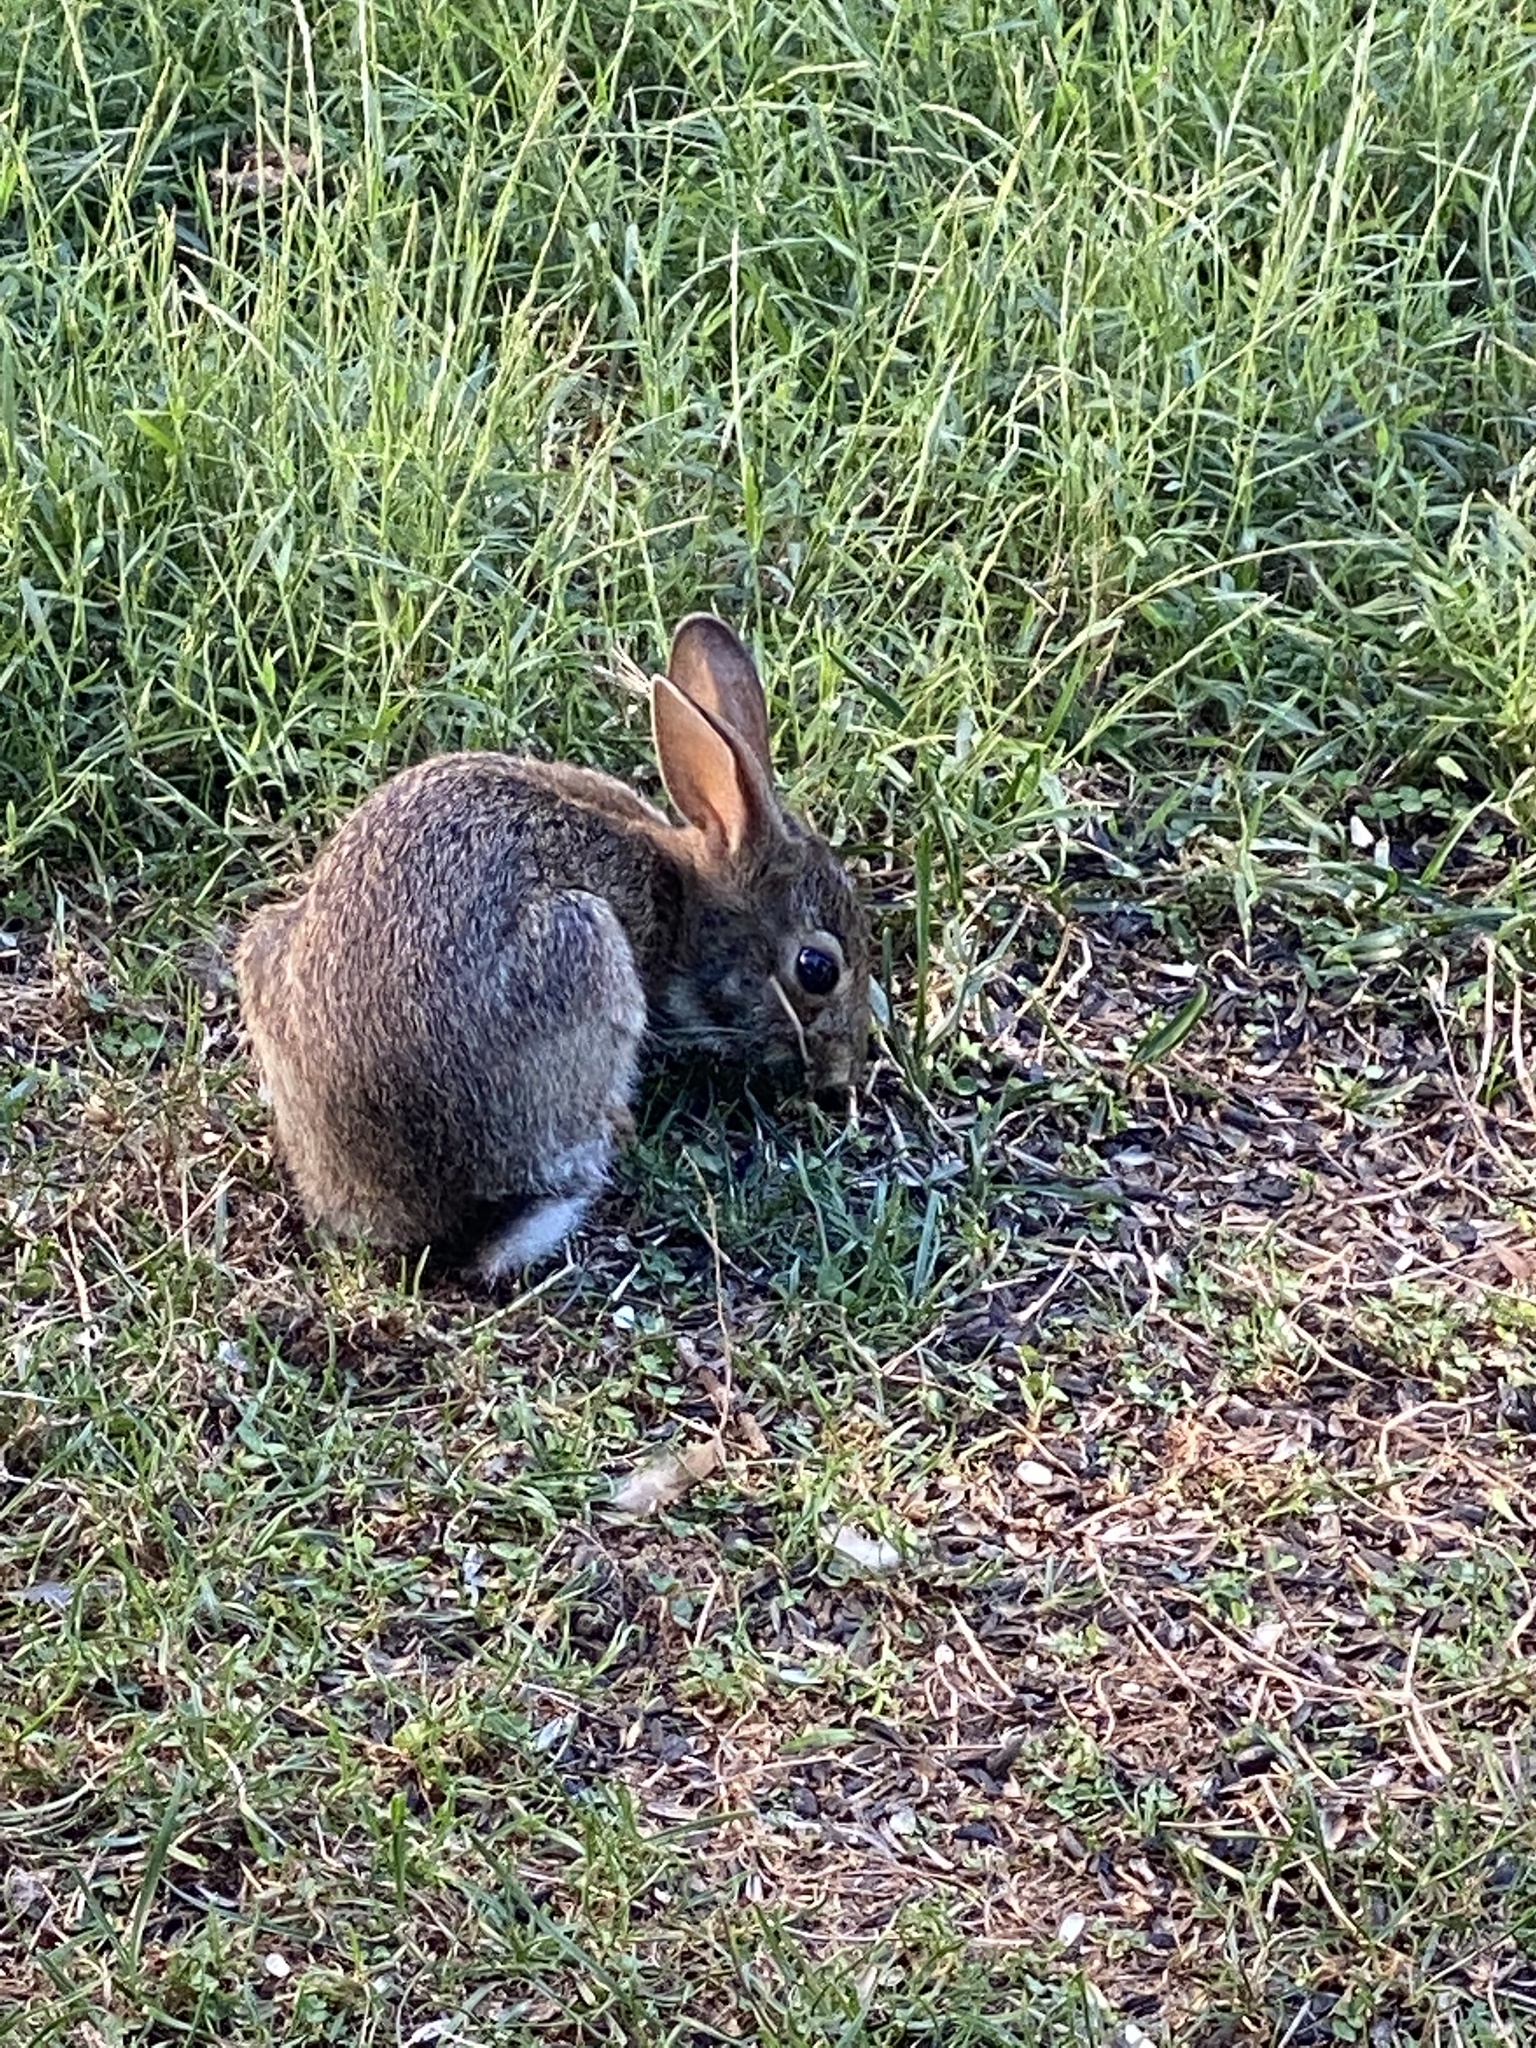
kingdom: Animalia
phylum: Chordata
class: Mammalia
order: Lagomorpha
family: Leporidae
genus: Sylvilagus
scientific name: Sylvilagus floridanus
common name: Eastern cottontail
